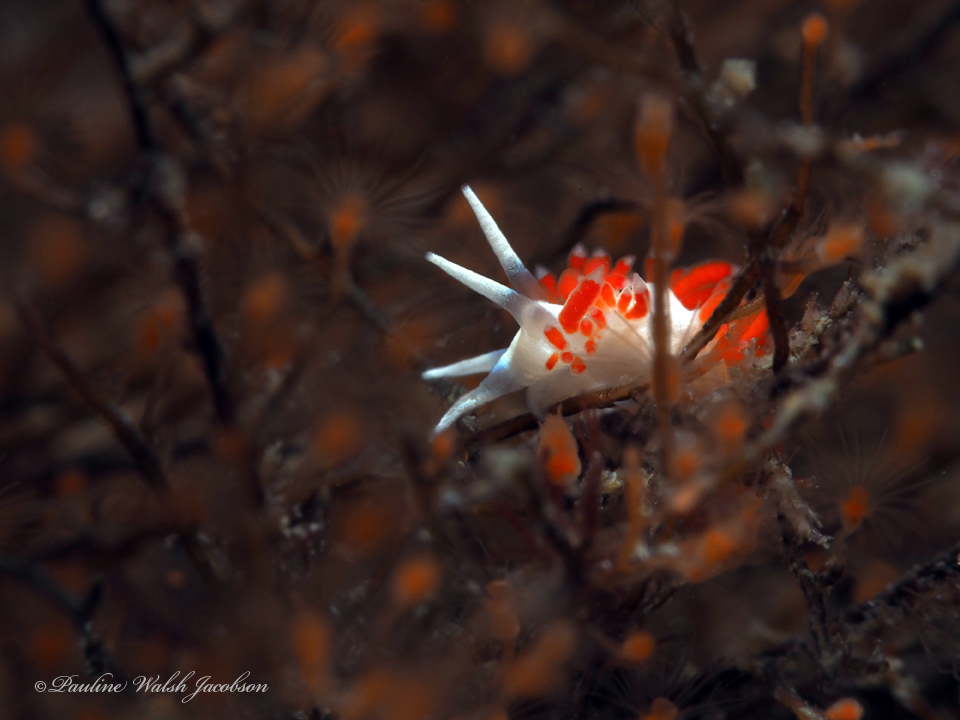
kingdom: Animalia
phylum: Mollusca
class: Gastropoda
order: Nudibranchia
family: Flabellinidae
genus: Flabellina
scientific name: Flabellina dushia
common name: Dushia flabellina
